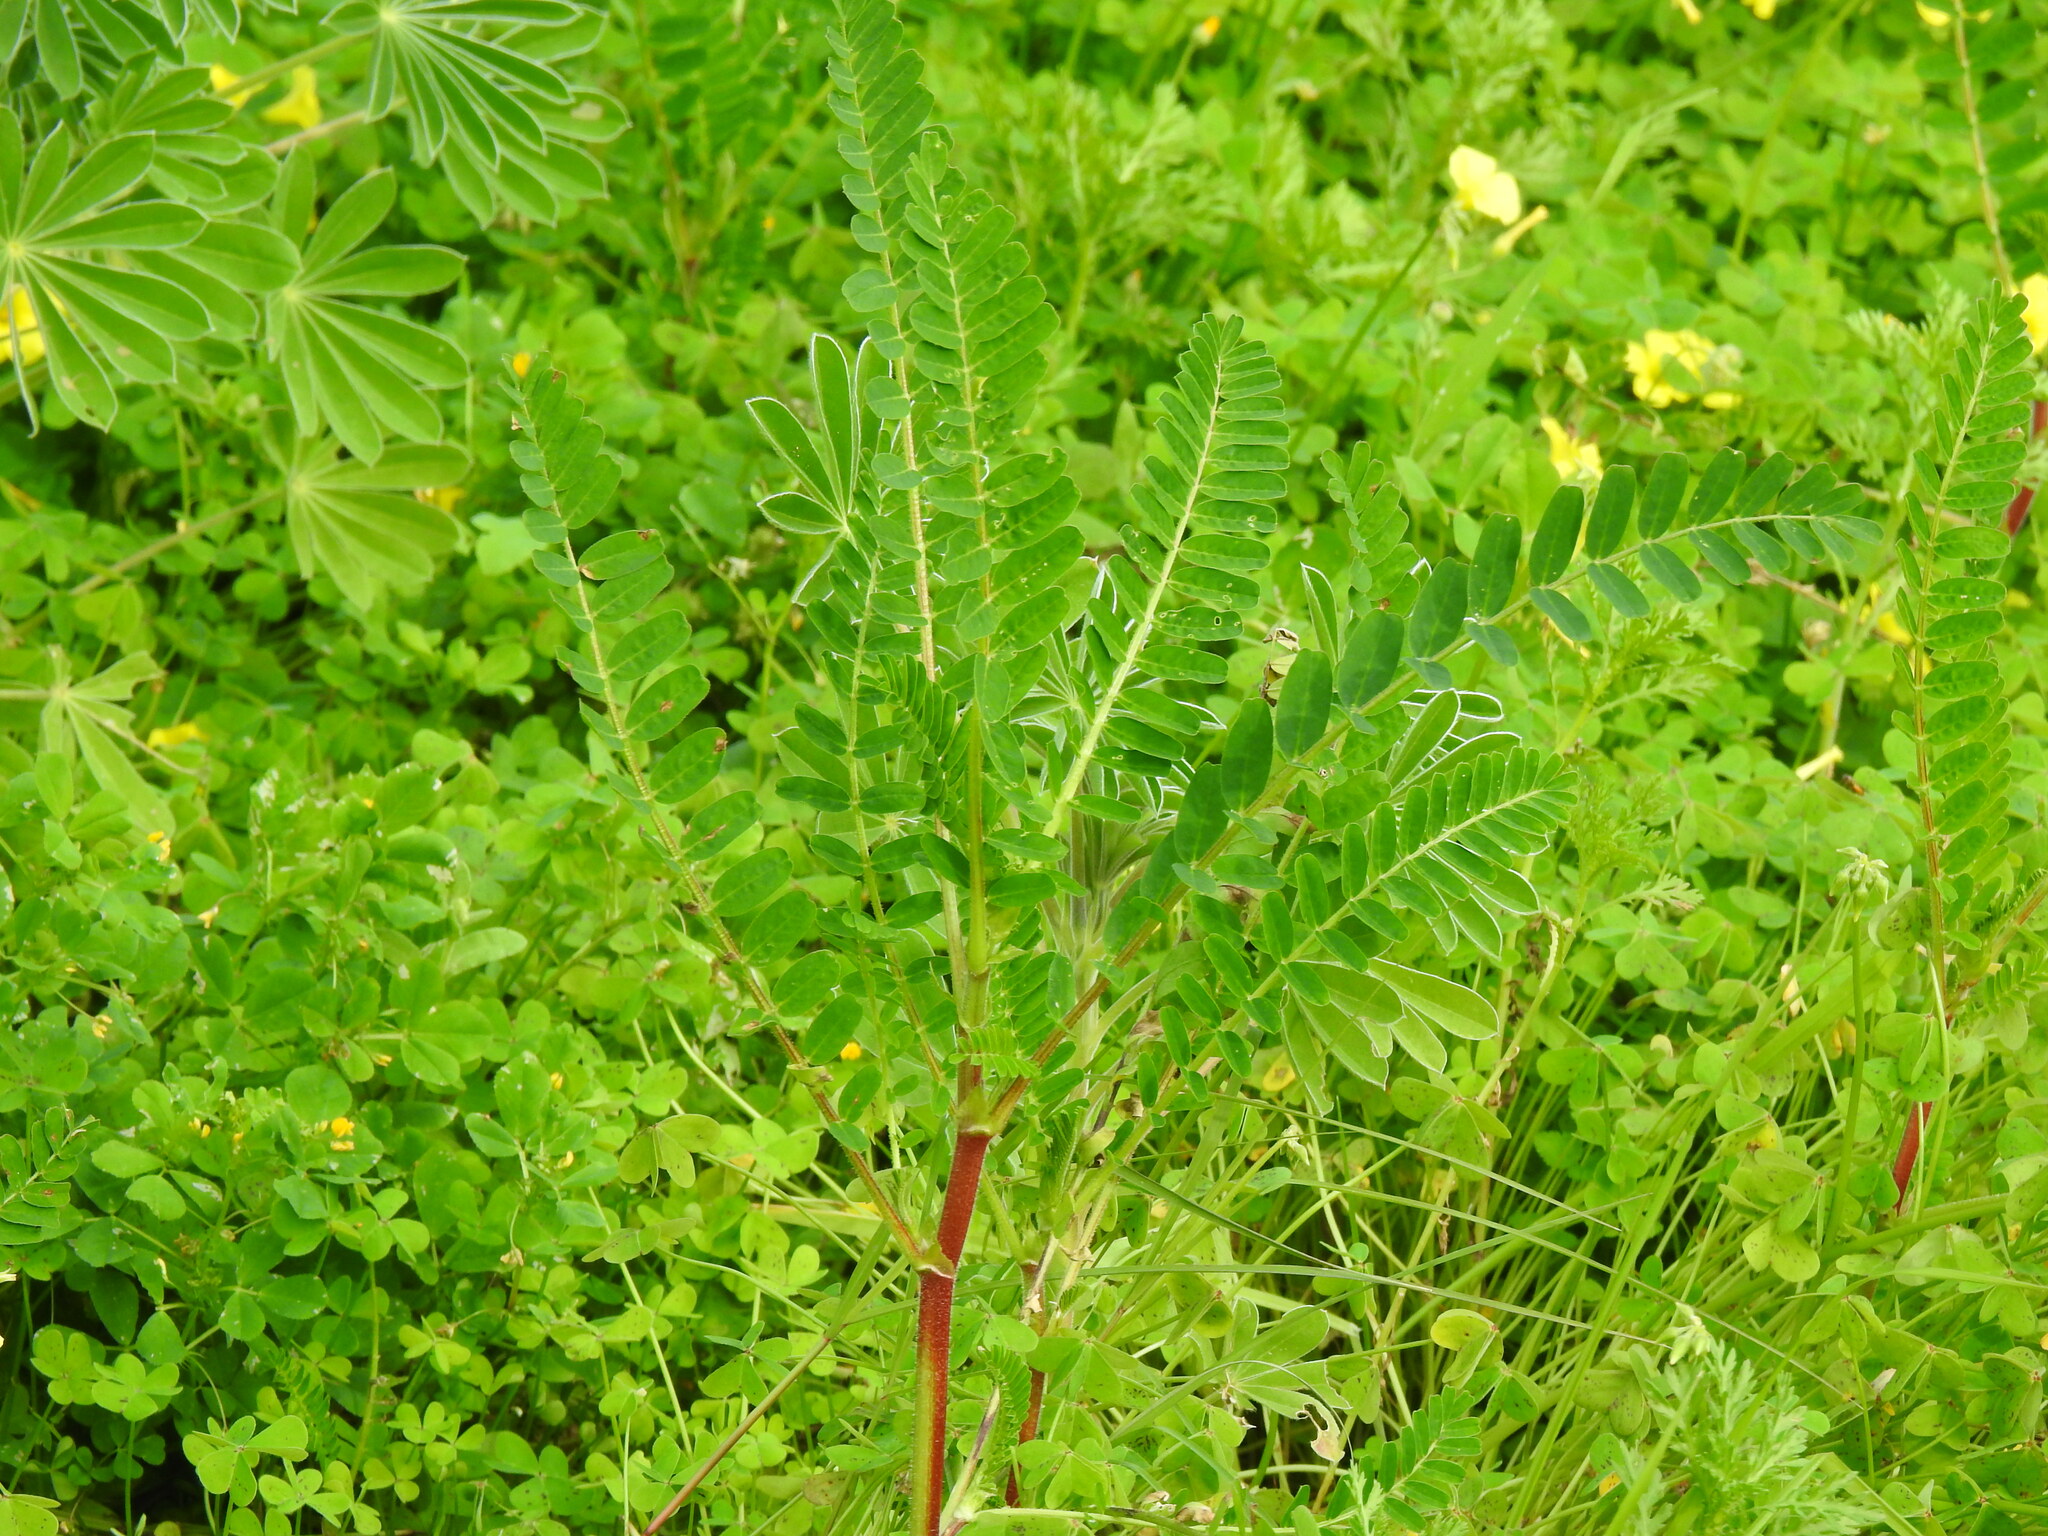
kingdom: Plantae
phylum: Tracheophyta
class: Magnoliopsida
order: Fabales
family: Fabaceae
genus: Astragalus
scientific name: Astragalus boeticus
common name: Milk-vetch
